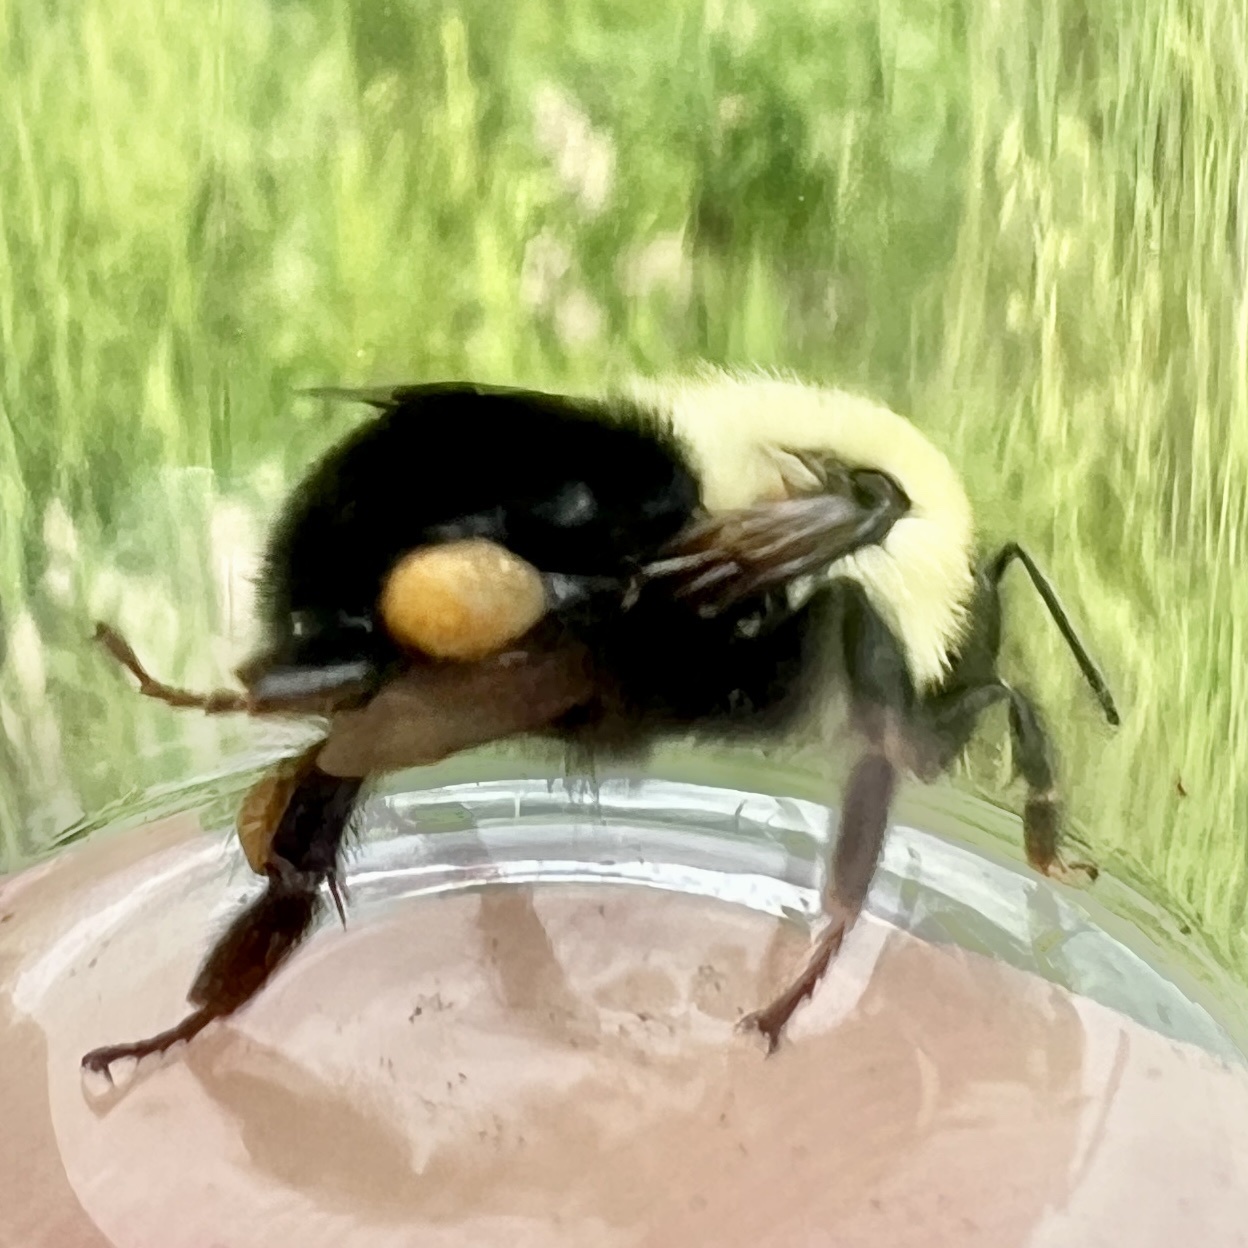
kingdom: Animalia
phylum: Arthropoda
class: Insecta
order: Hymenoptera
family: Apidae
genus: Bombus
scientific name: Bombus bimaculatus
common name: Two-spotted bumble bee
